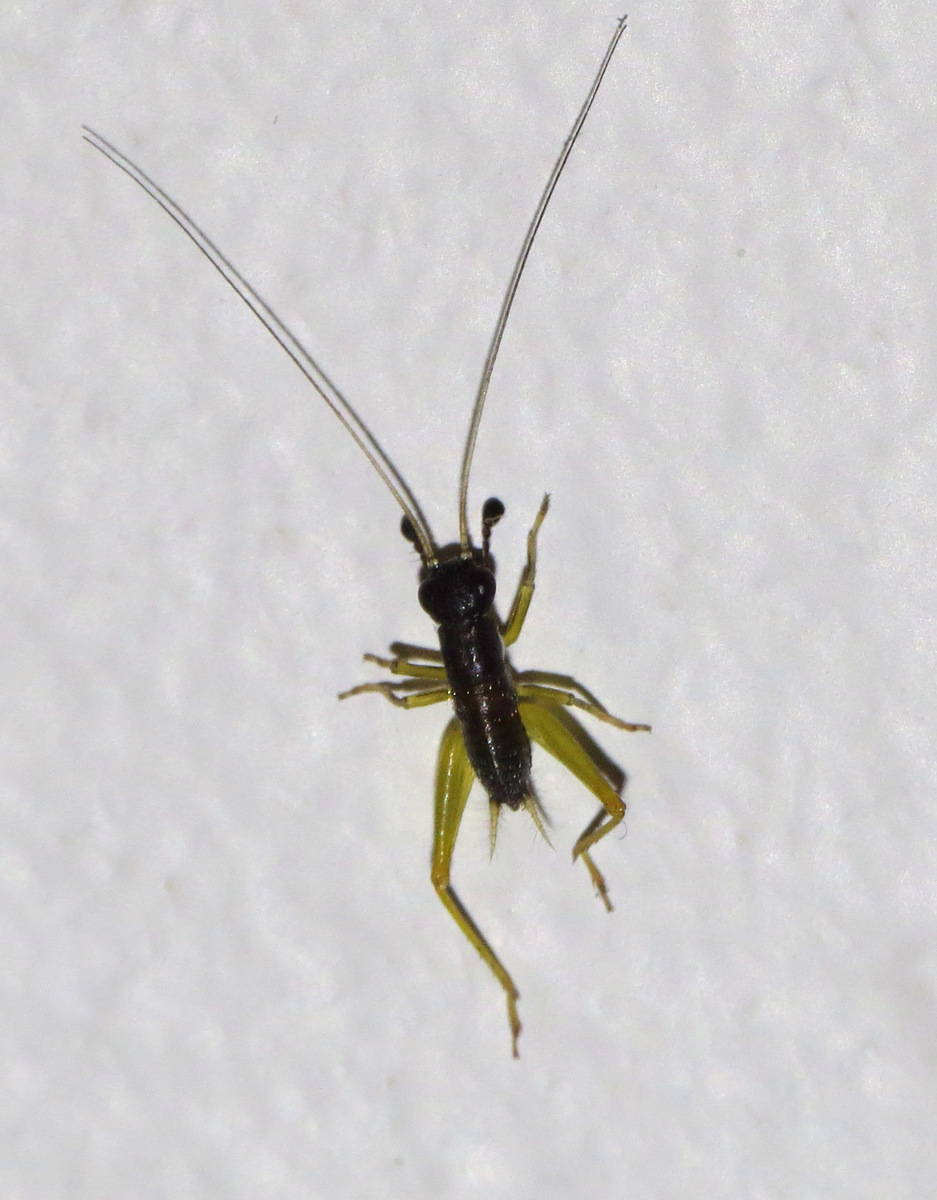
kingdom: Animalia
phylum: Arthropoda
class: Insecta
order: Orthoptera
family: Trigonidiidae
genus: Phyllopalpus
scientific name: Phyllopalpus pulchellus
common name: Handsome trig
